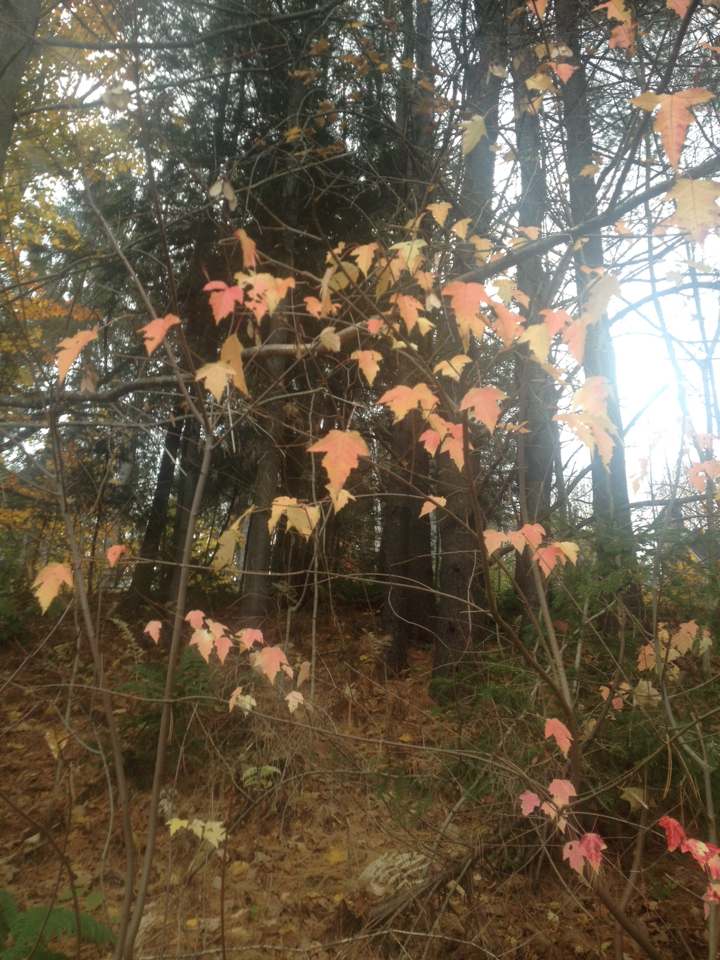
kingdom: Plantae
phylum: Tracheophyta
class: Magnoliopsida
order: Sapindales
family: Sapindaceae
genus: Acer
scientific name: Acer tataricum
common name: Tartar maple
